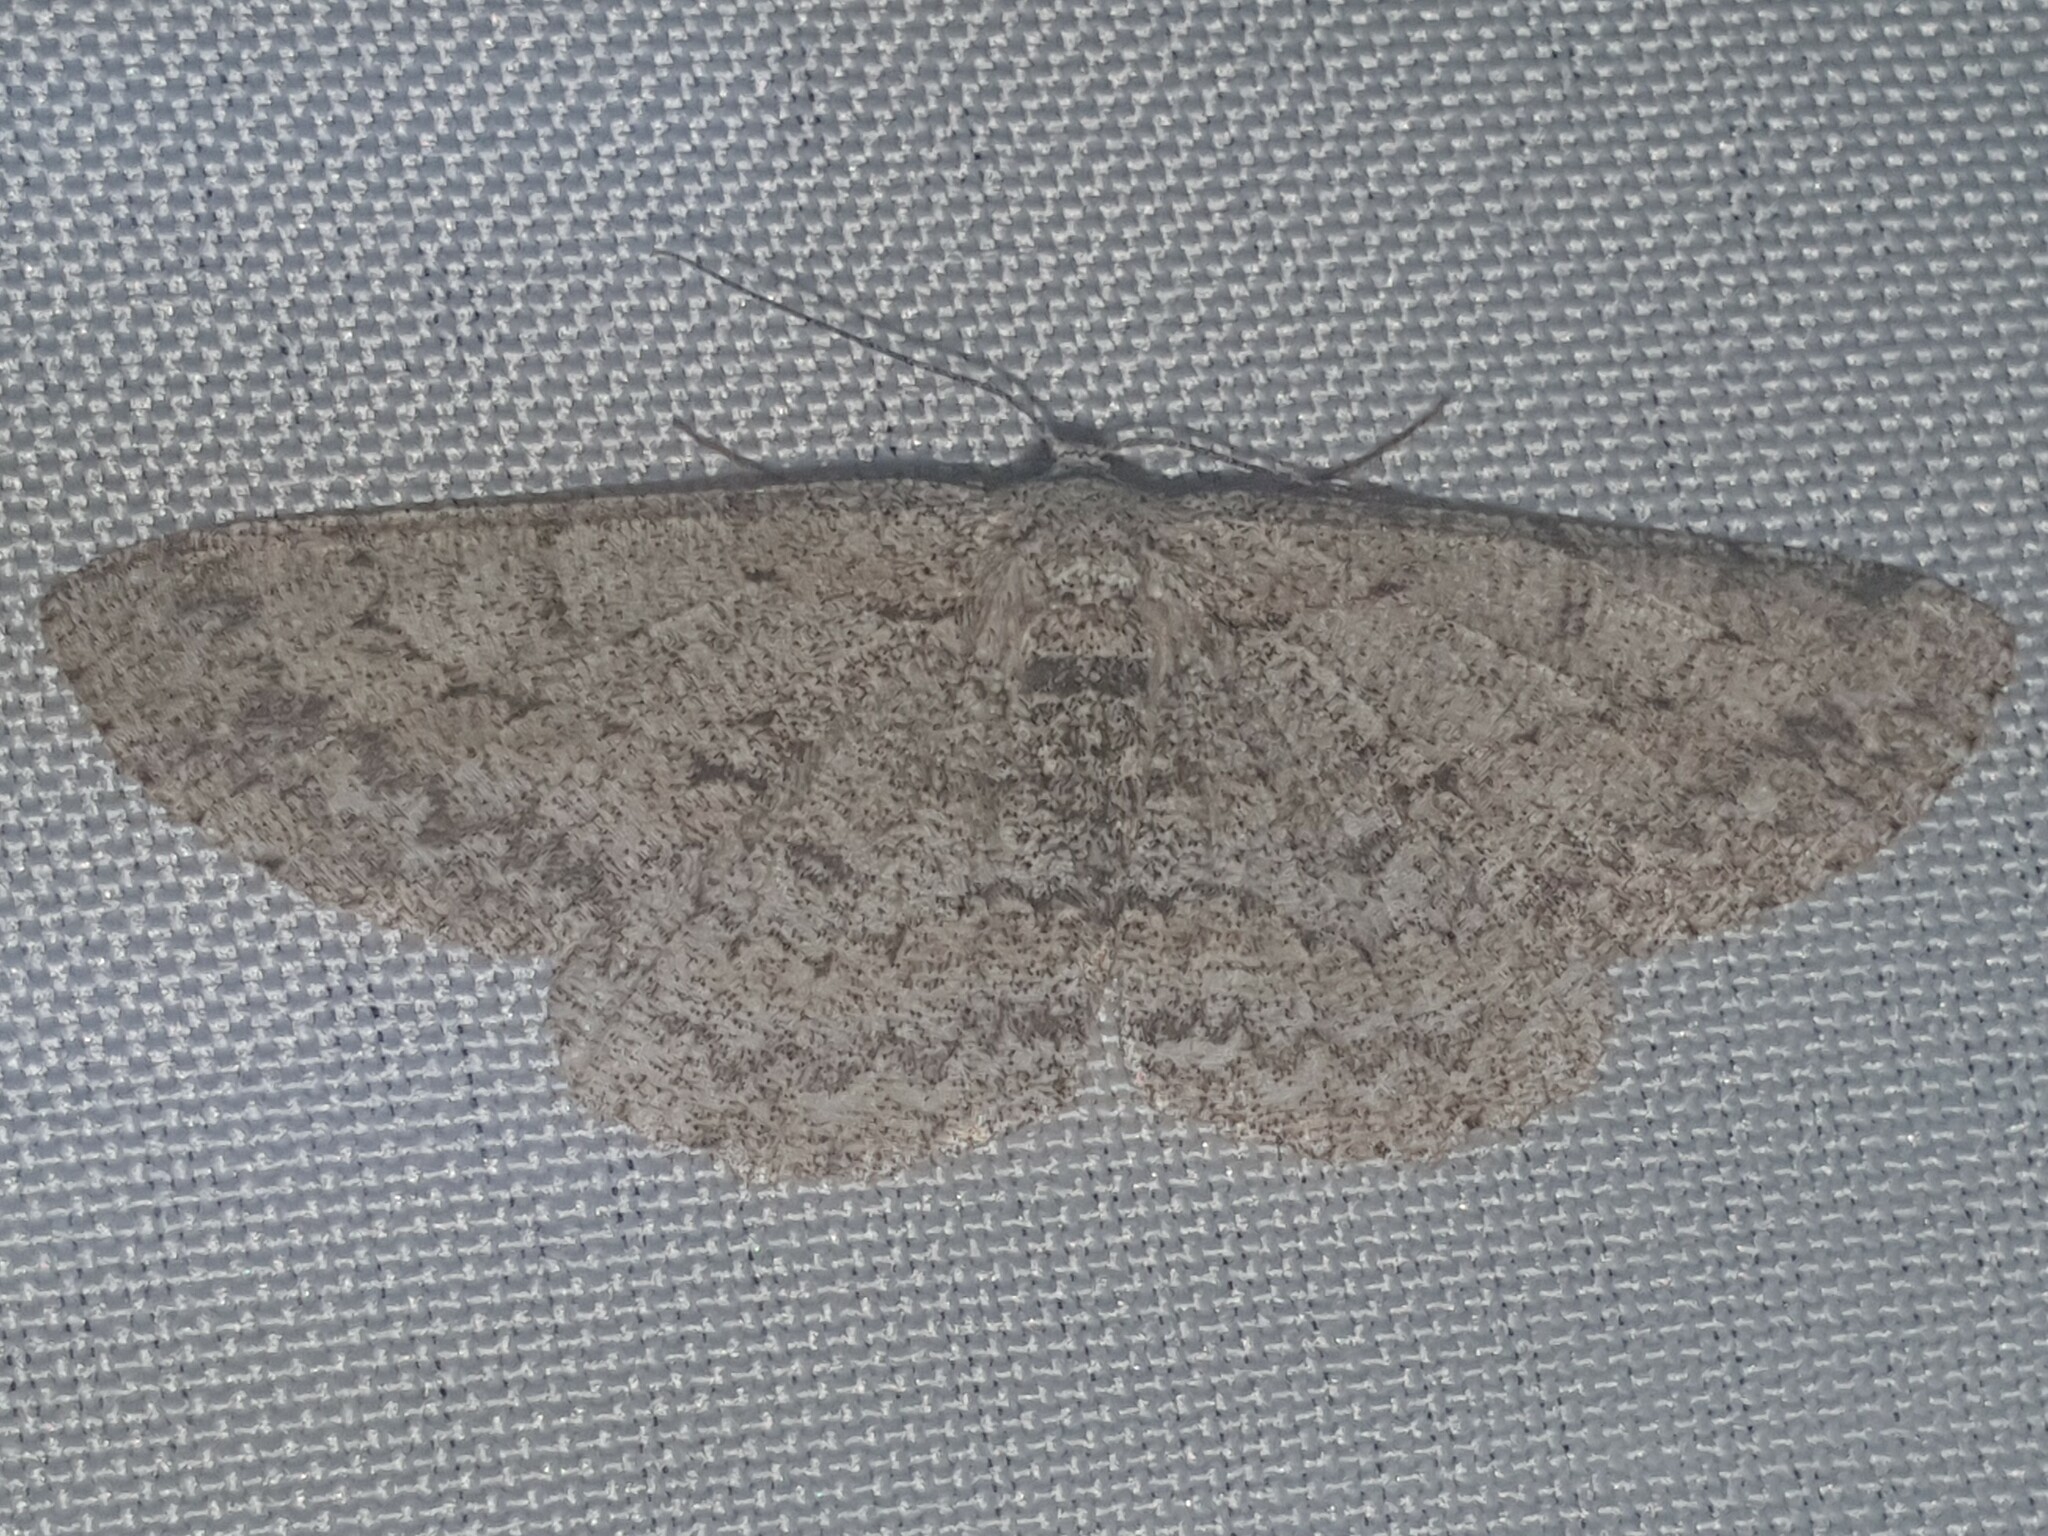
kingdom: Animalia
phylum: Arthropoda
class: Insecta
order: Lepidoptera
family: Geometridae
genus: Hypomecis
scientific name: Hypomecis punctinalis
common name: Pale oak beauty
